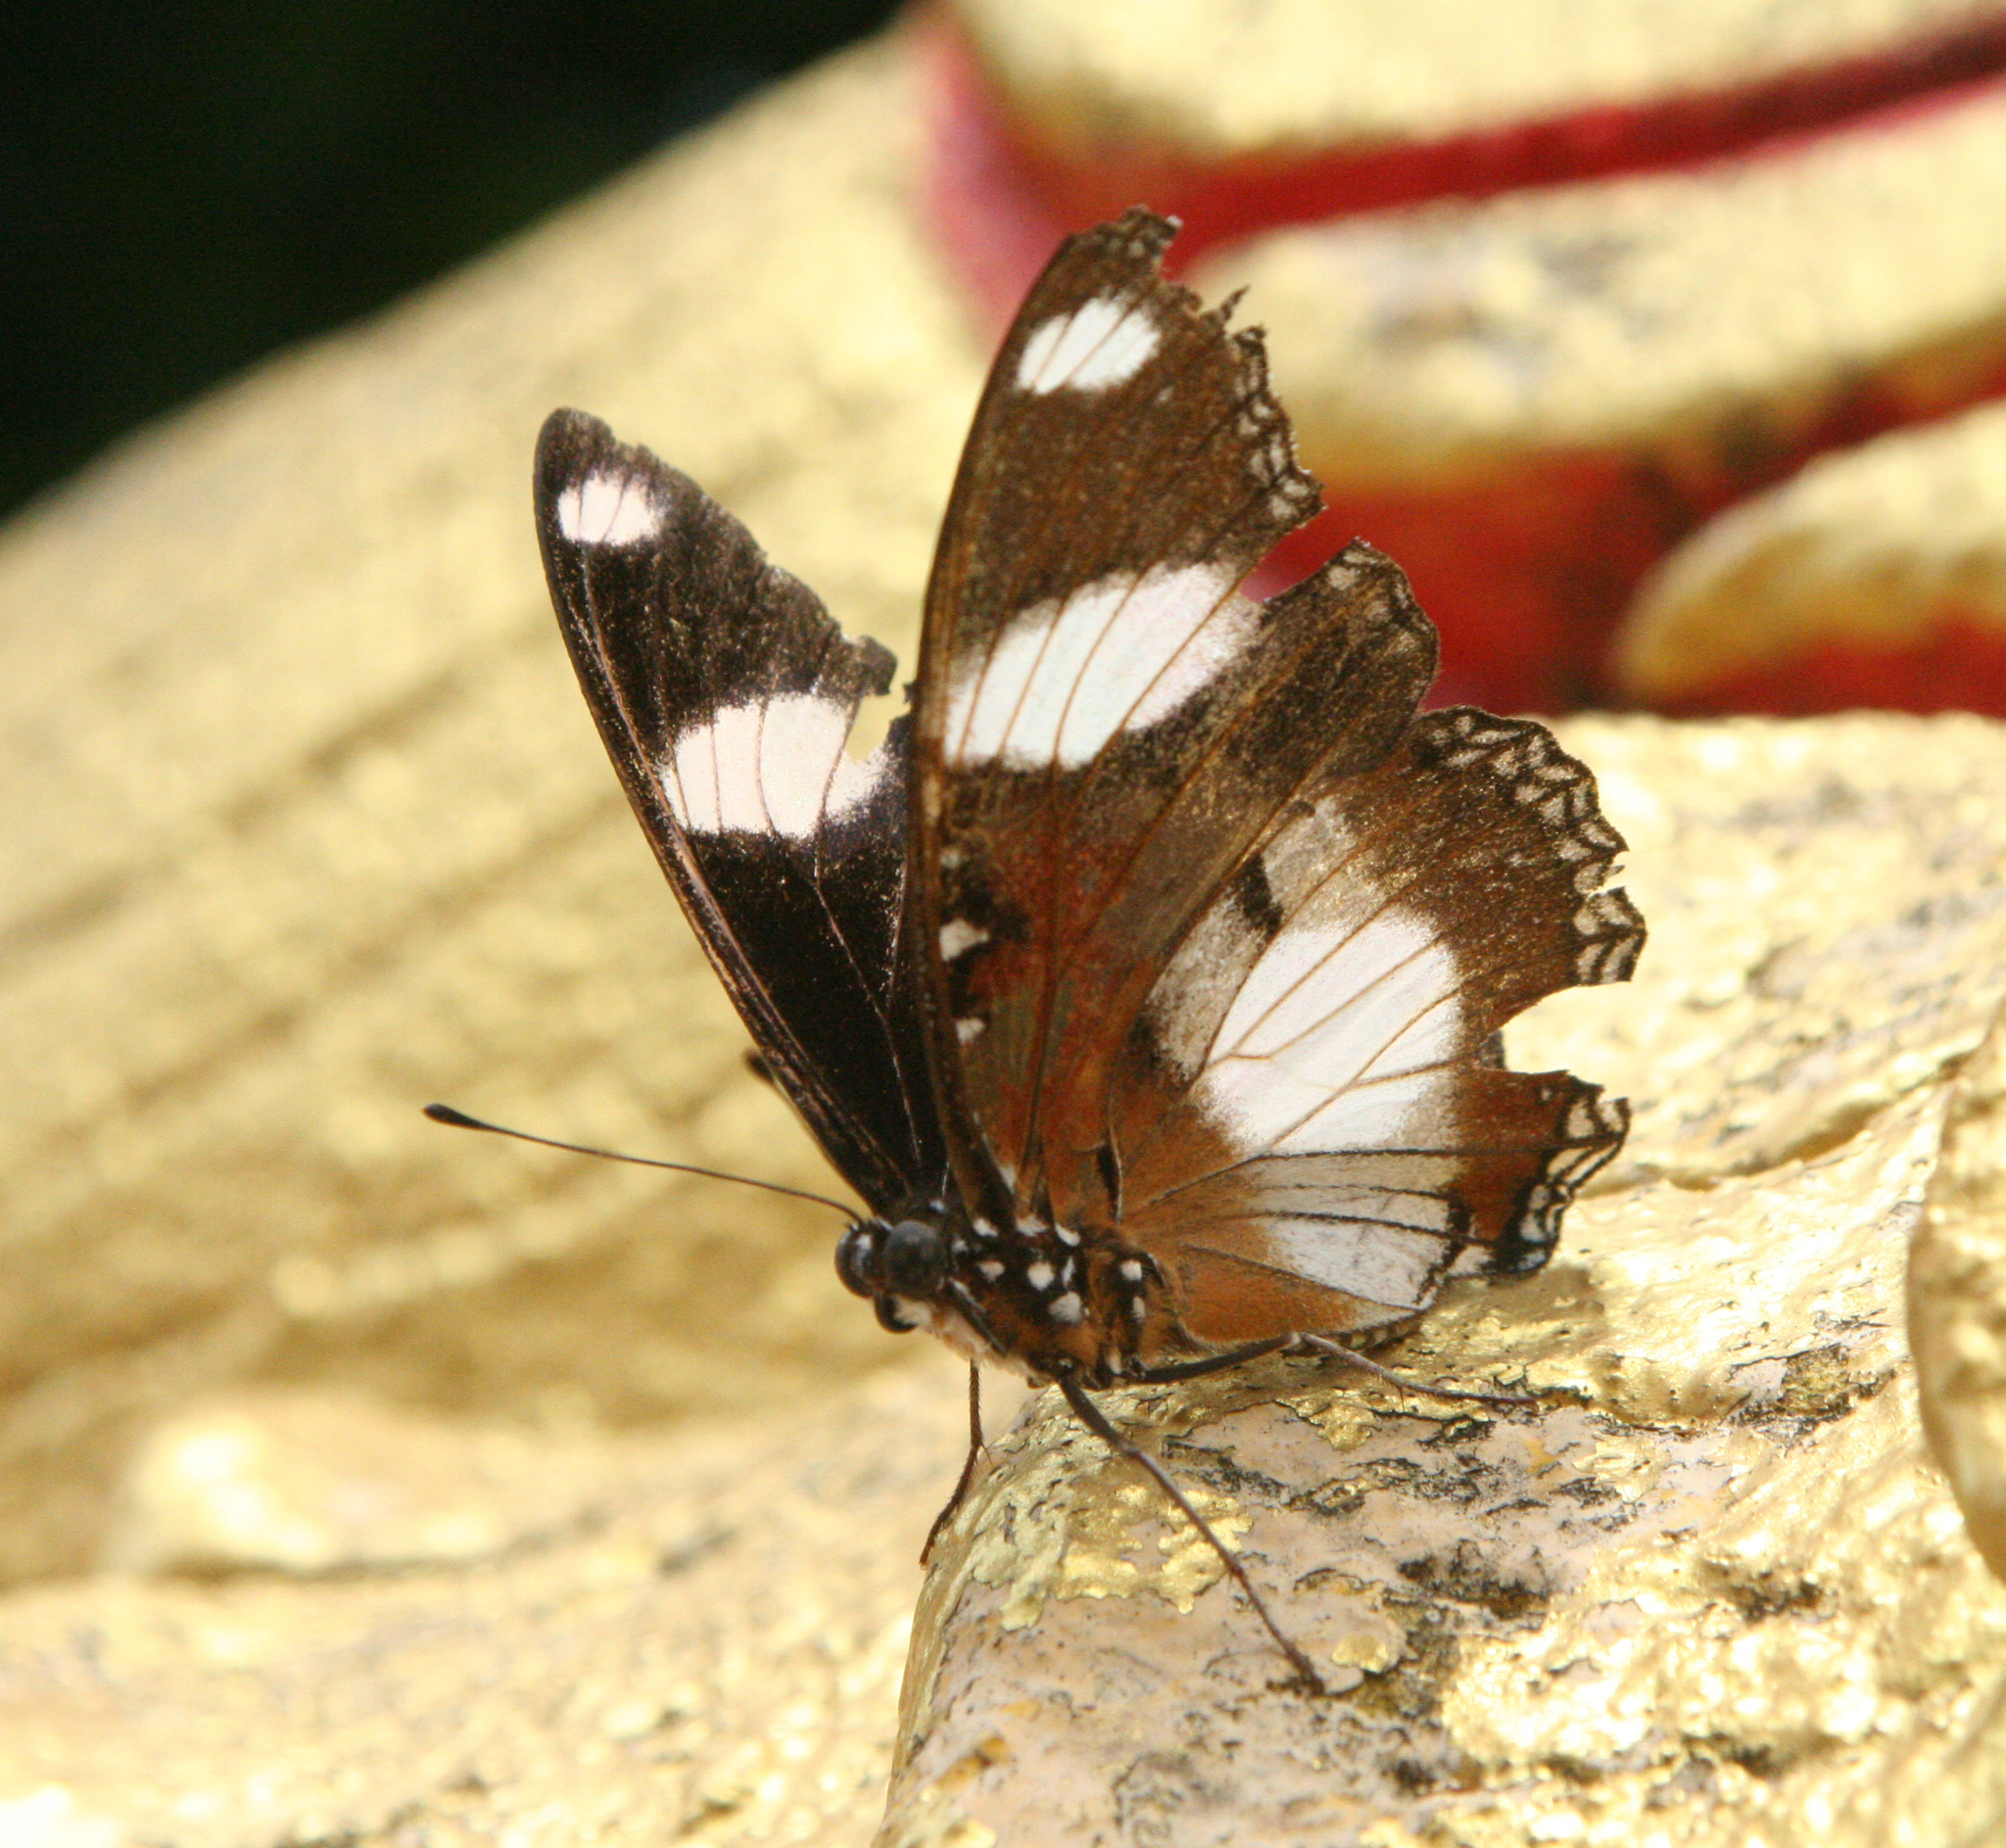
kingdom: Animalia
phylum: Arthropoda
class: Insecta
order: Lepidoptera
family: Nymphalidae
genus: Hypolimnas
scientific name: Hypolimnas misippus
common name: False plain tiger
